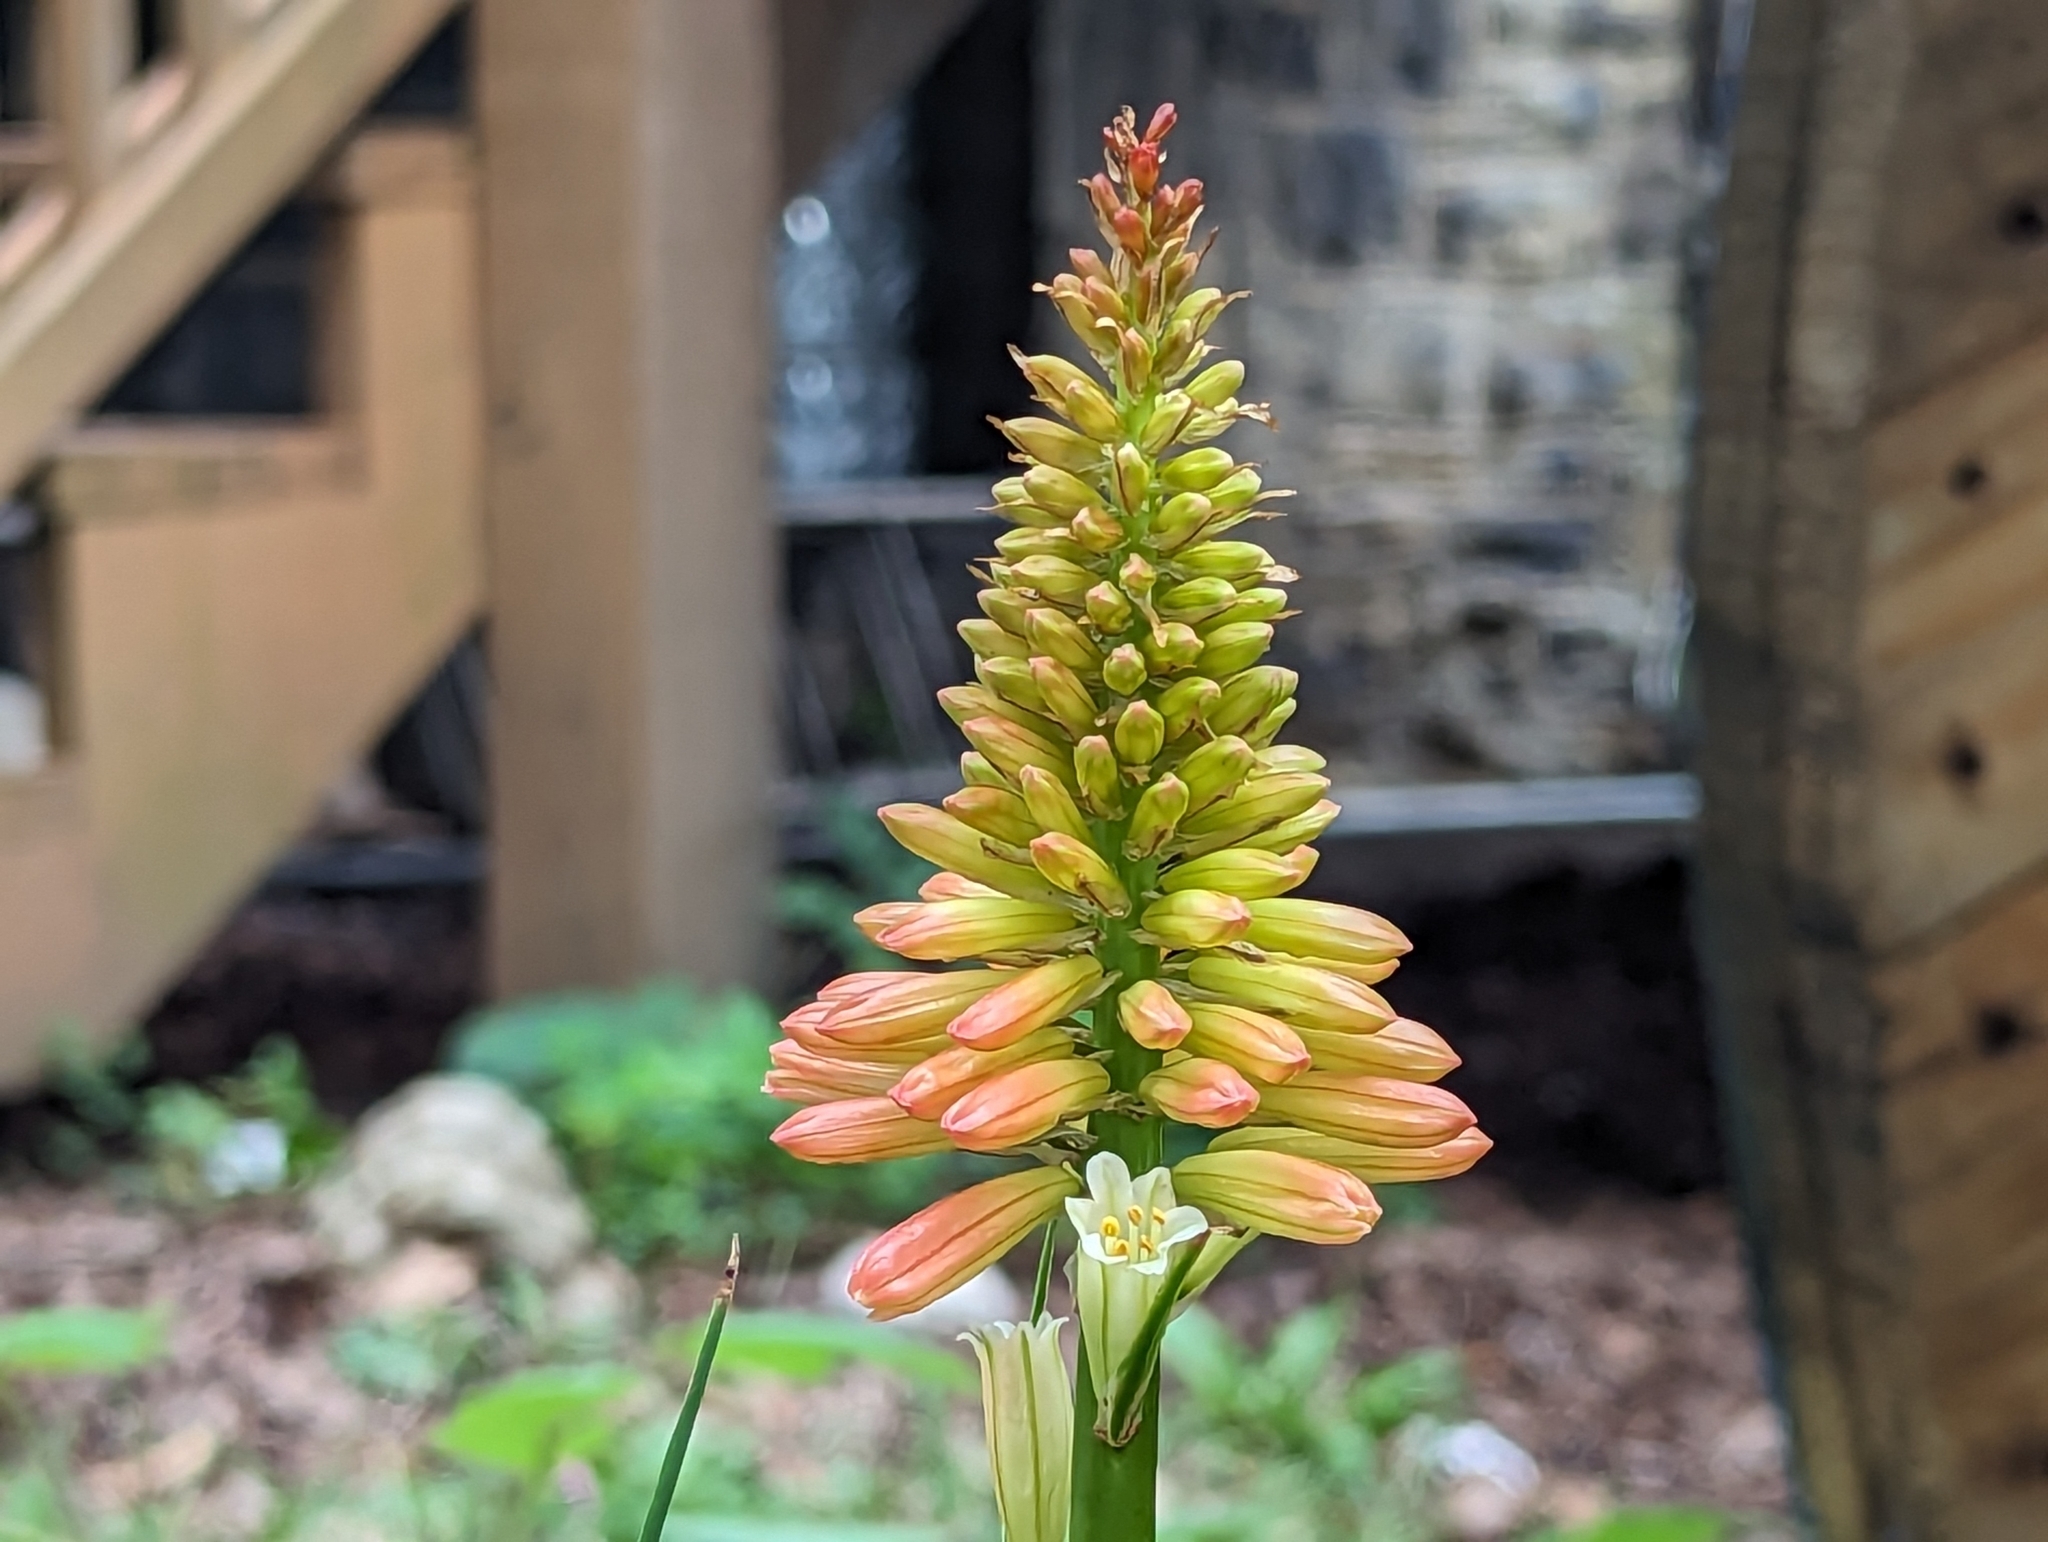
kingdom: Plantae
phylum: Tracheophyta
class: Liliopsida
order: Asparagales
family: Asphodelaceae
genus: Kniphofia
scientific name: Kniphofia uvaria
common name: Red-hot-poker
